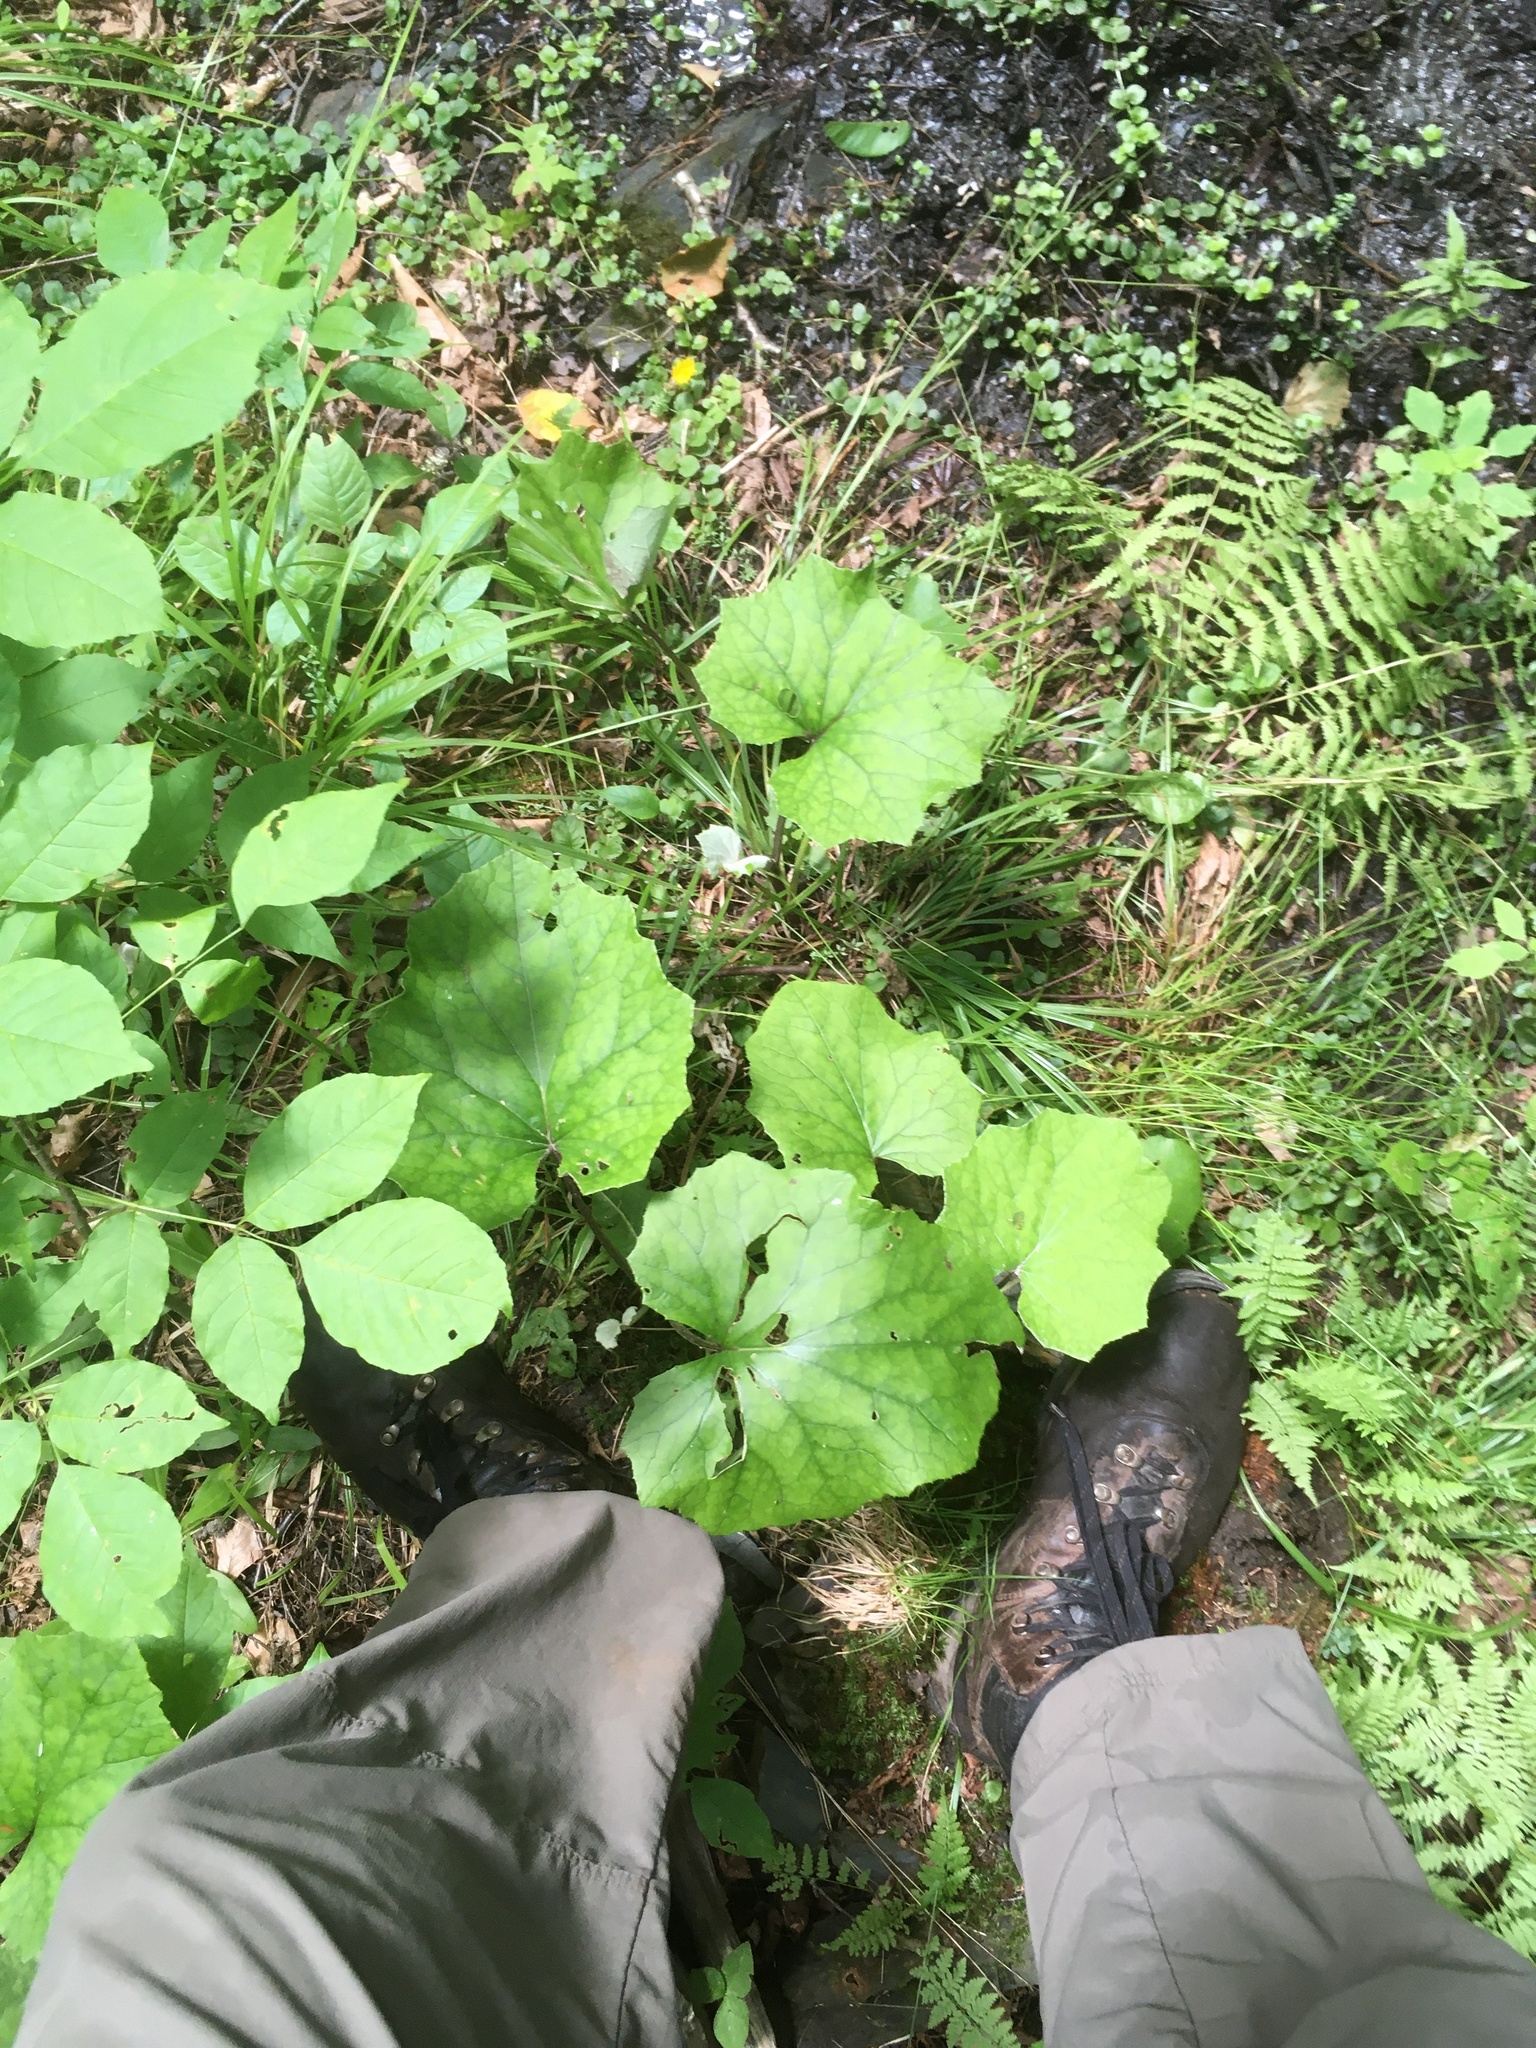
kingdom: Plantae
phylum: Tracheophyta
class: Magnoliopsida
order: Asterales
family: Asteraceae
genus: Tussilago
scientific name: Tussilago farfara
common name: Coltsfoot
